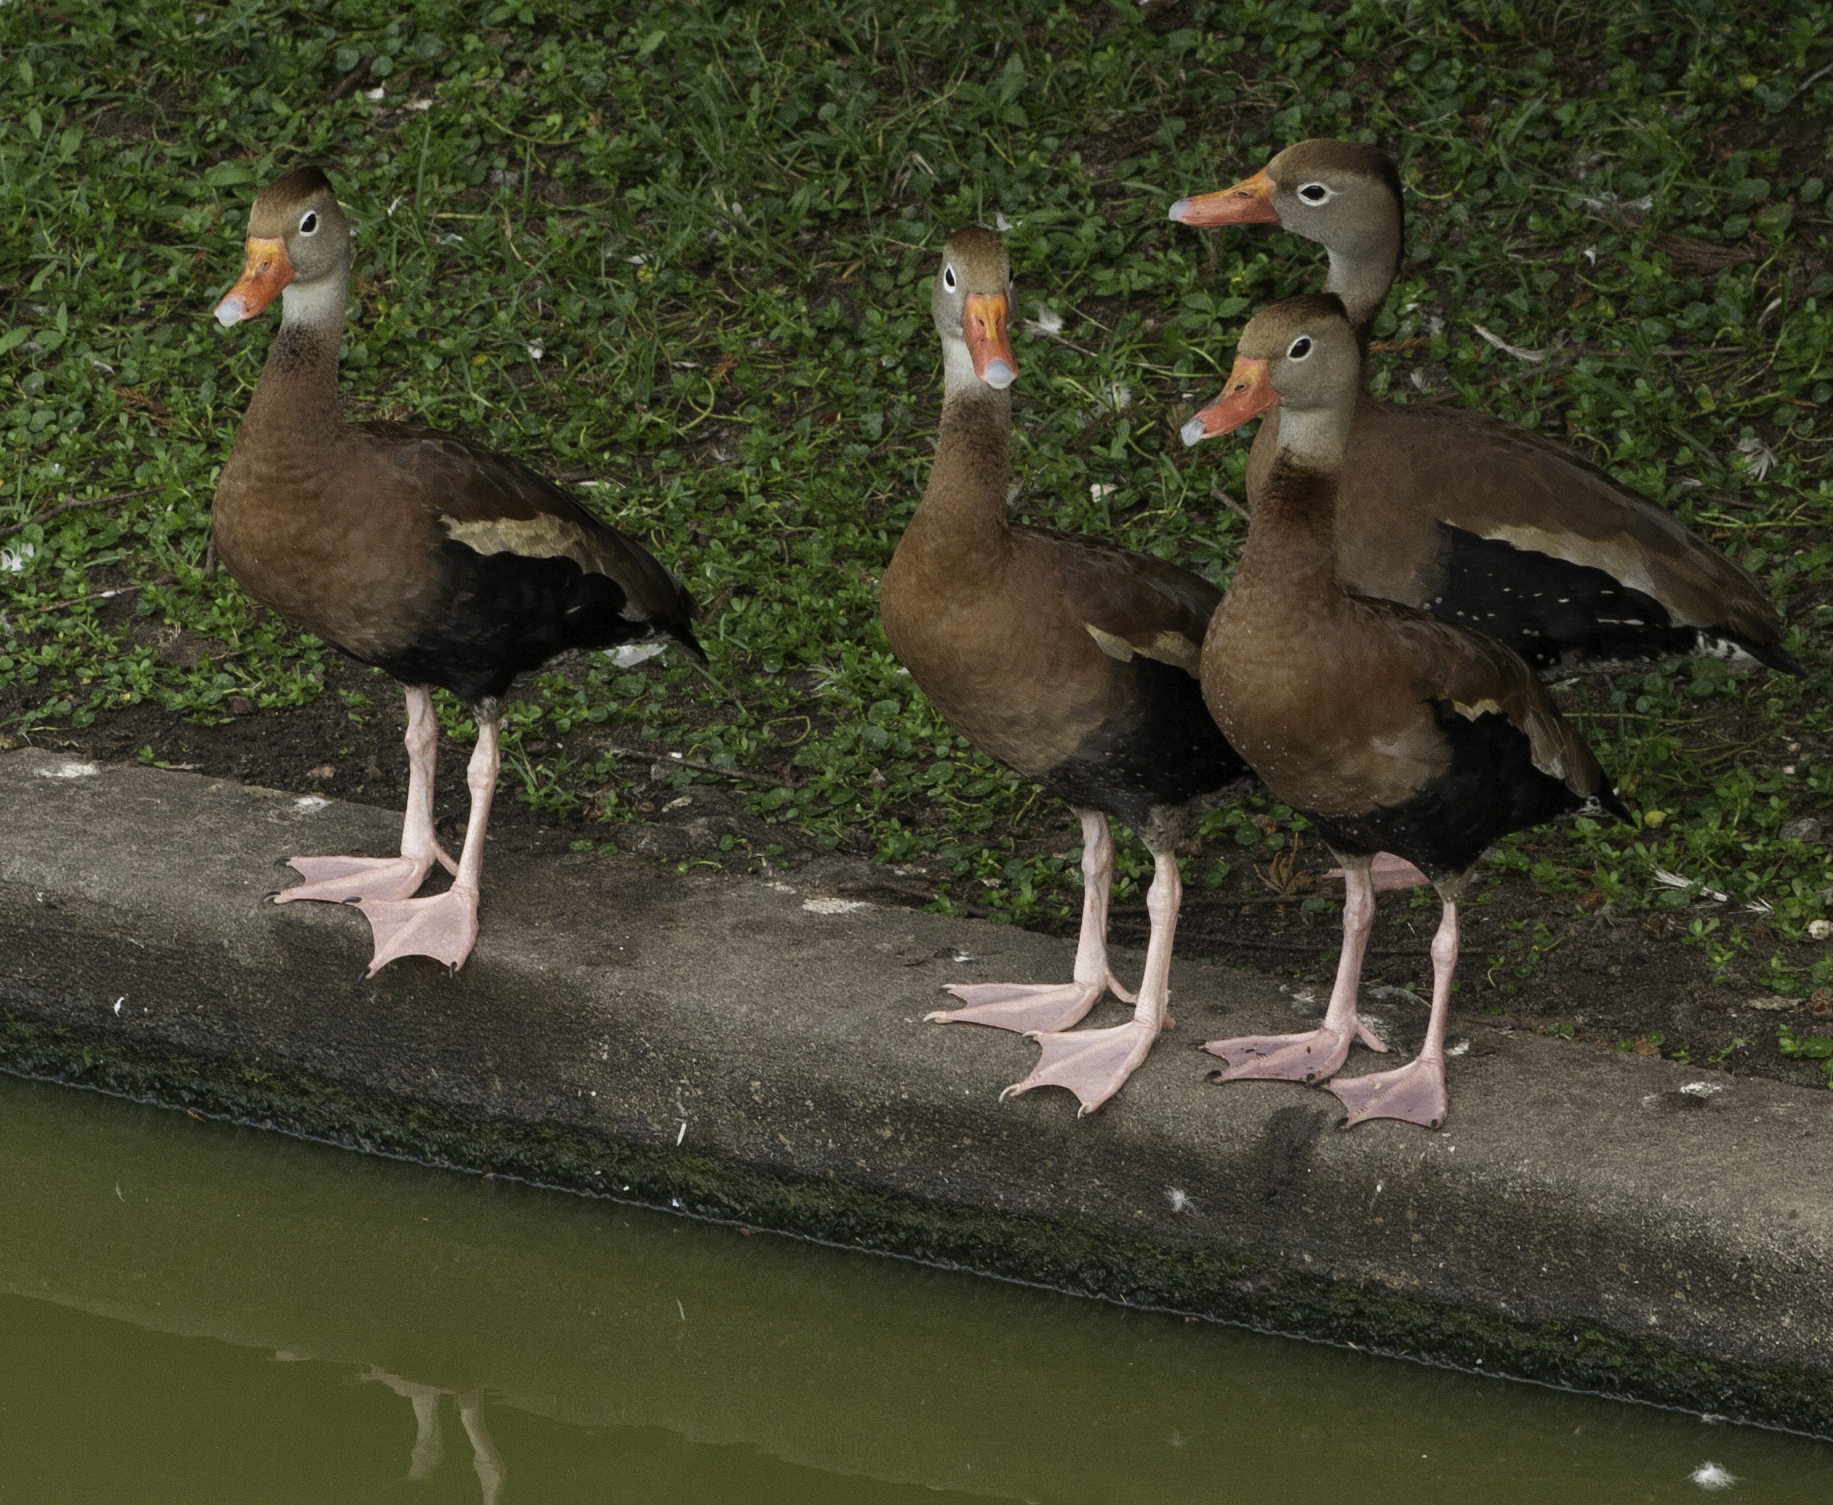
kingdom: Animalia
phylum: Chordata
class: Aves
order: Anseriformes
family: Anatidae
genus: Dendrocygna
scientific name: Dendrocygna autumnalis
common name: Black-bellied whistling duck
